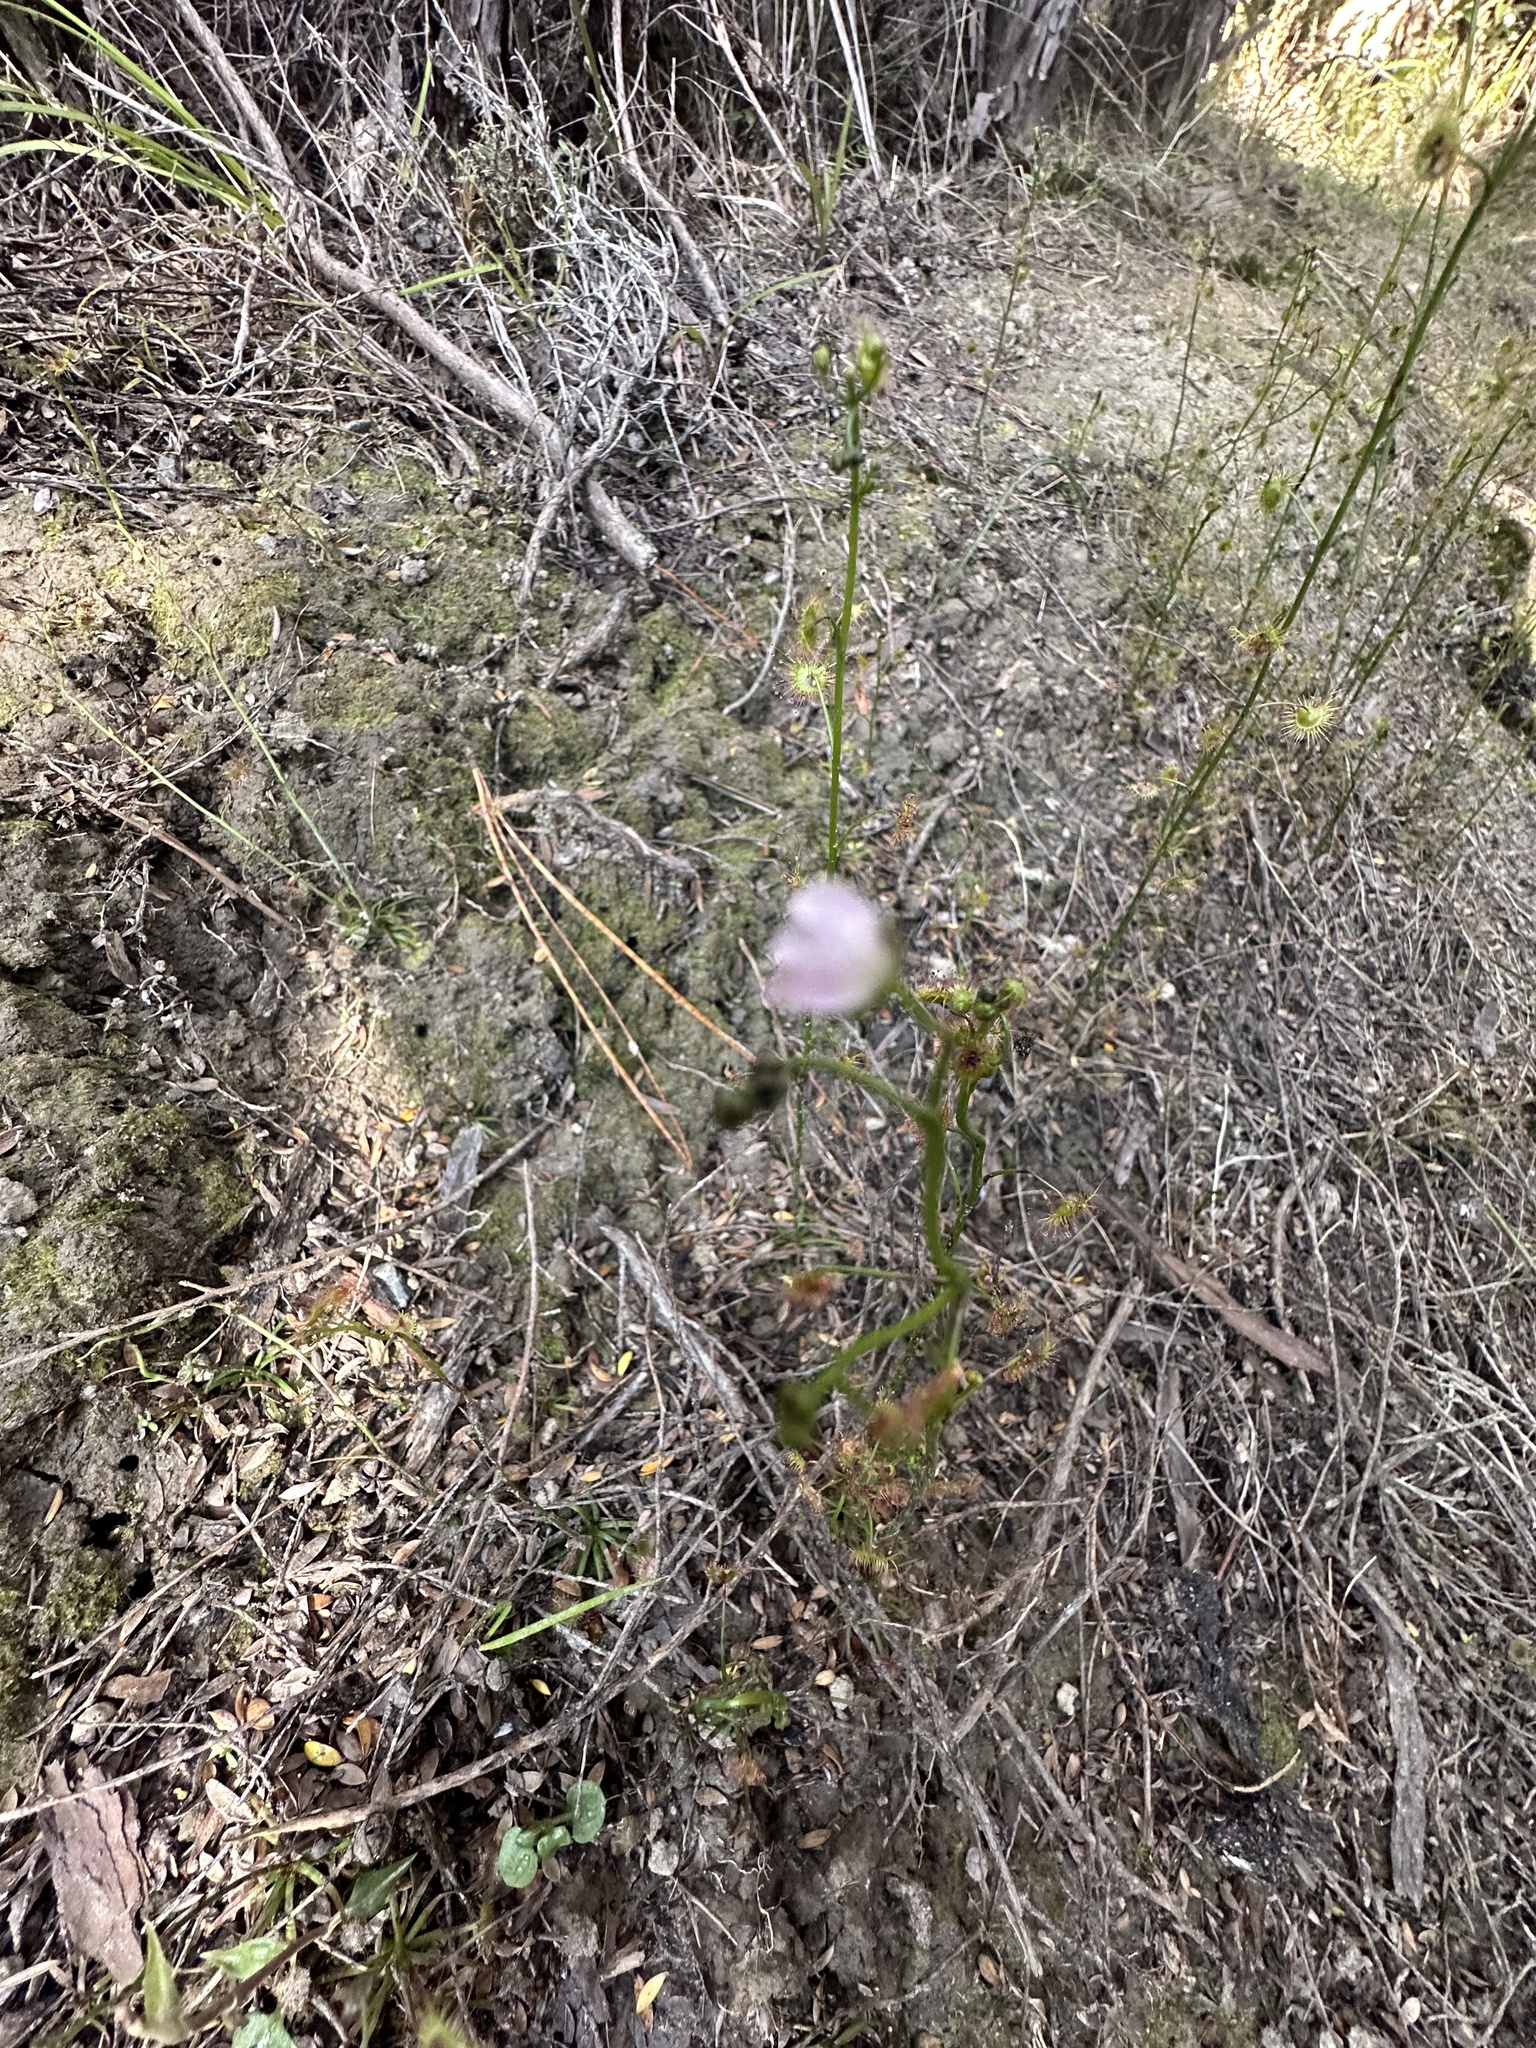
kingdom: Plantae
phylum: Tracheophyta
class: Magnoliopsida
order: Caryophyllales
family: Droseraceae
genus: Drosera
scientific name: Drosera peltata
